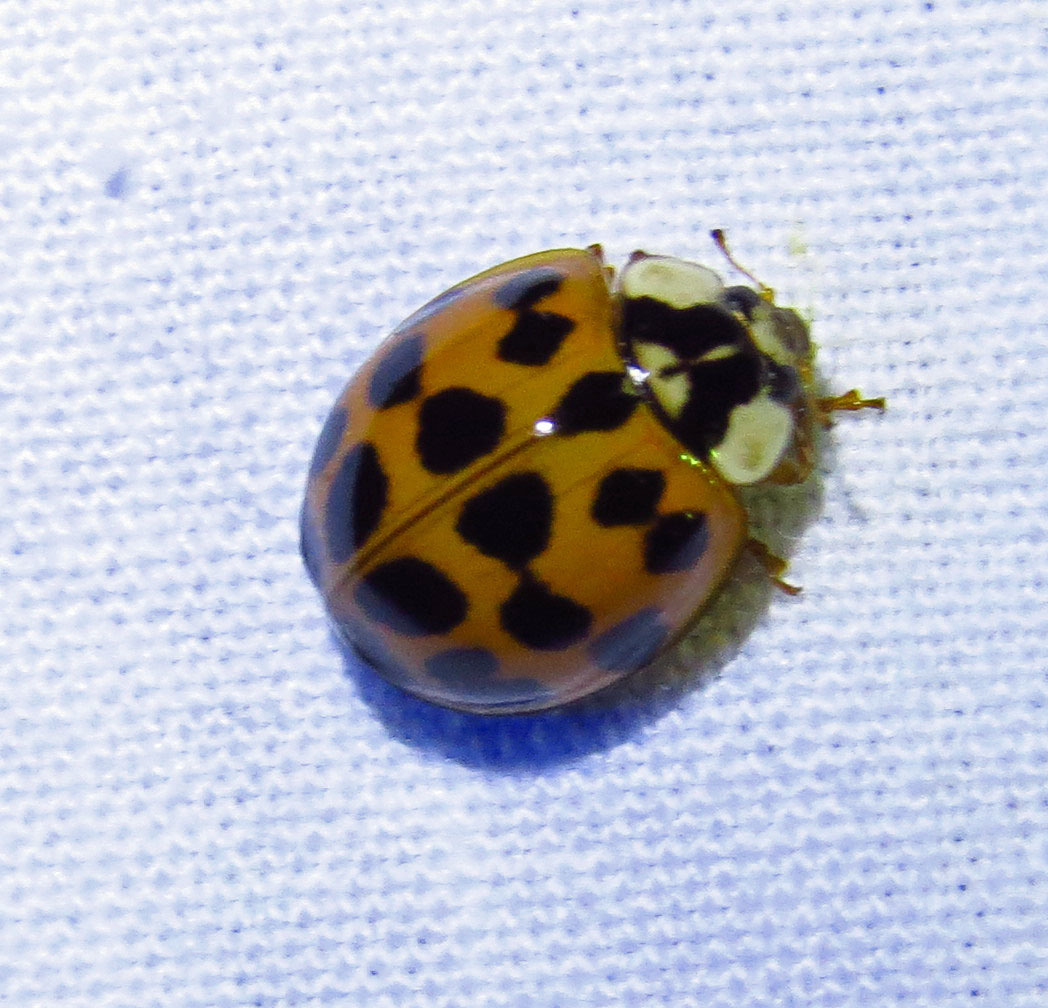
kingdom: Animalia
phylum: Arthropoda
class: Insecta
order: Coleoptera
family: Coccinellidae
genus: Harmonia
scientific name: Harmonia axyridis
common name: Harlequin ladybird
